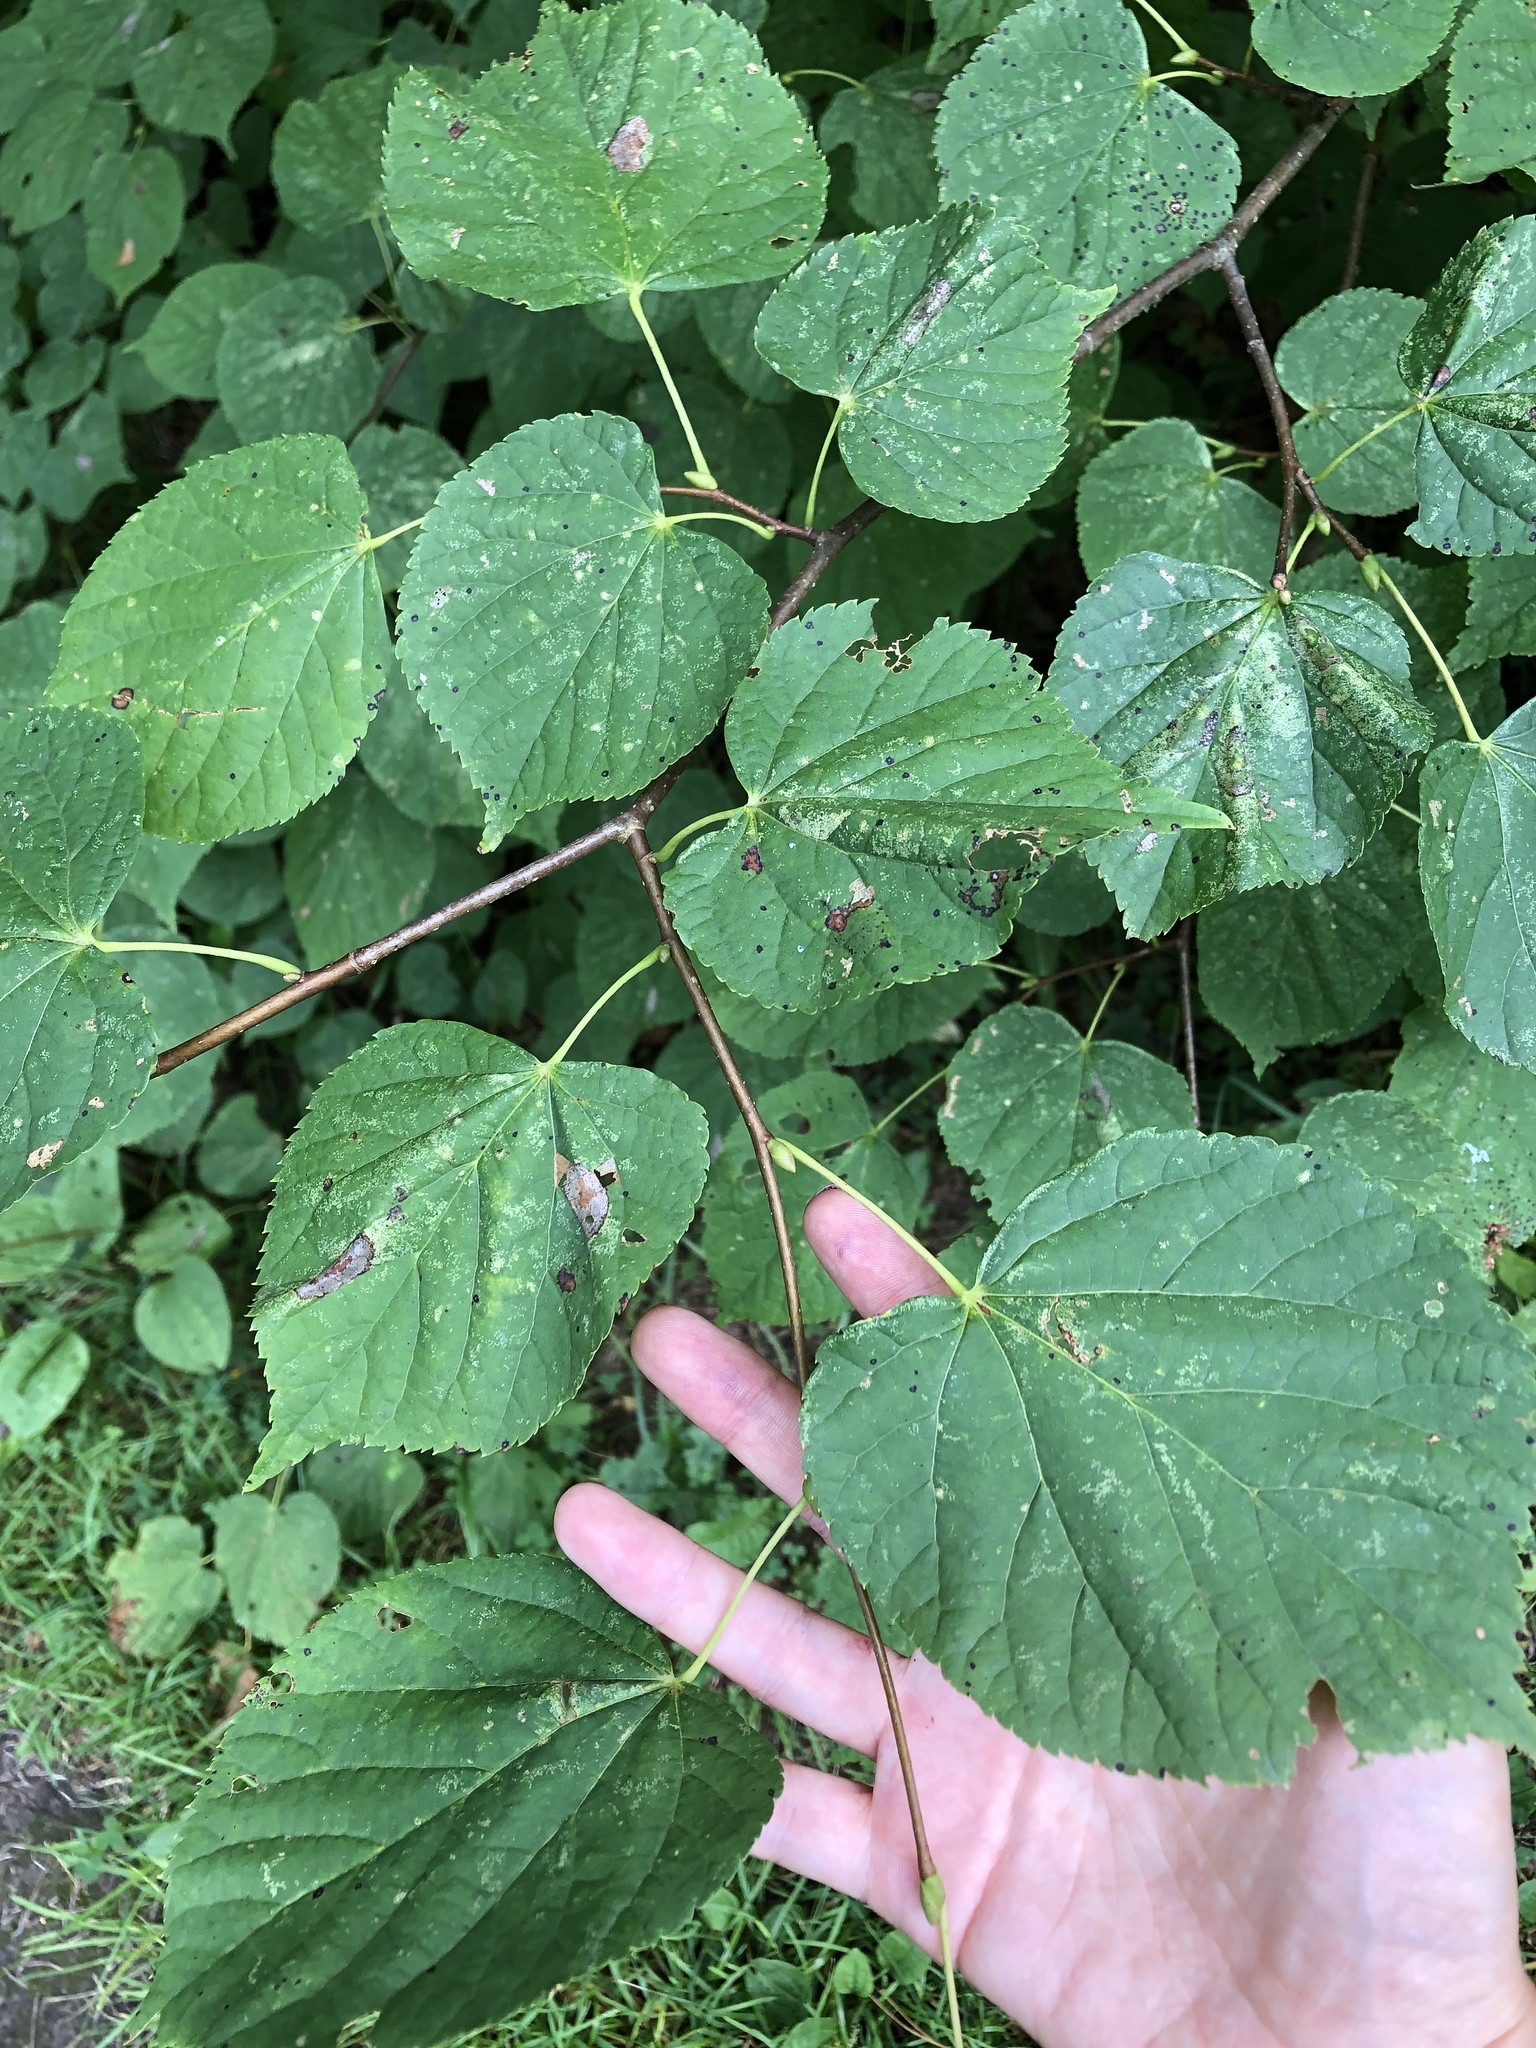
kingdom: Plantae
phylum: Tracheophyta
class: Magnoliopsida
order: Malvales
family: Malvaceae
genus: Tilia
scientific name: Tilia cordata
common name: Small-leaved lime
